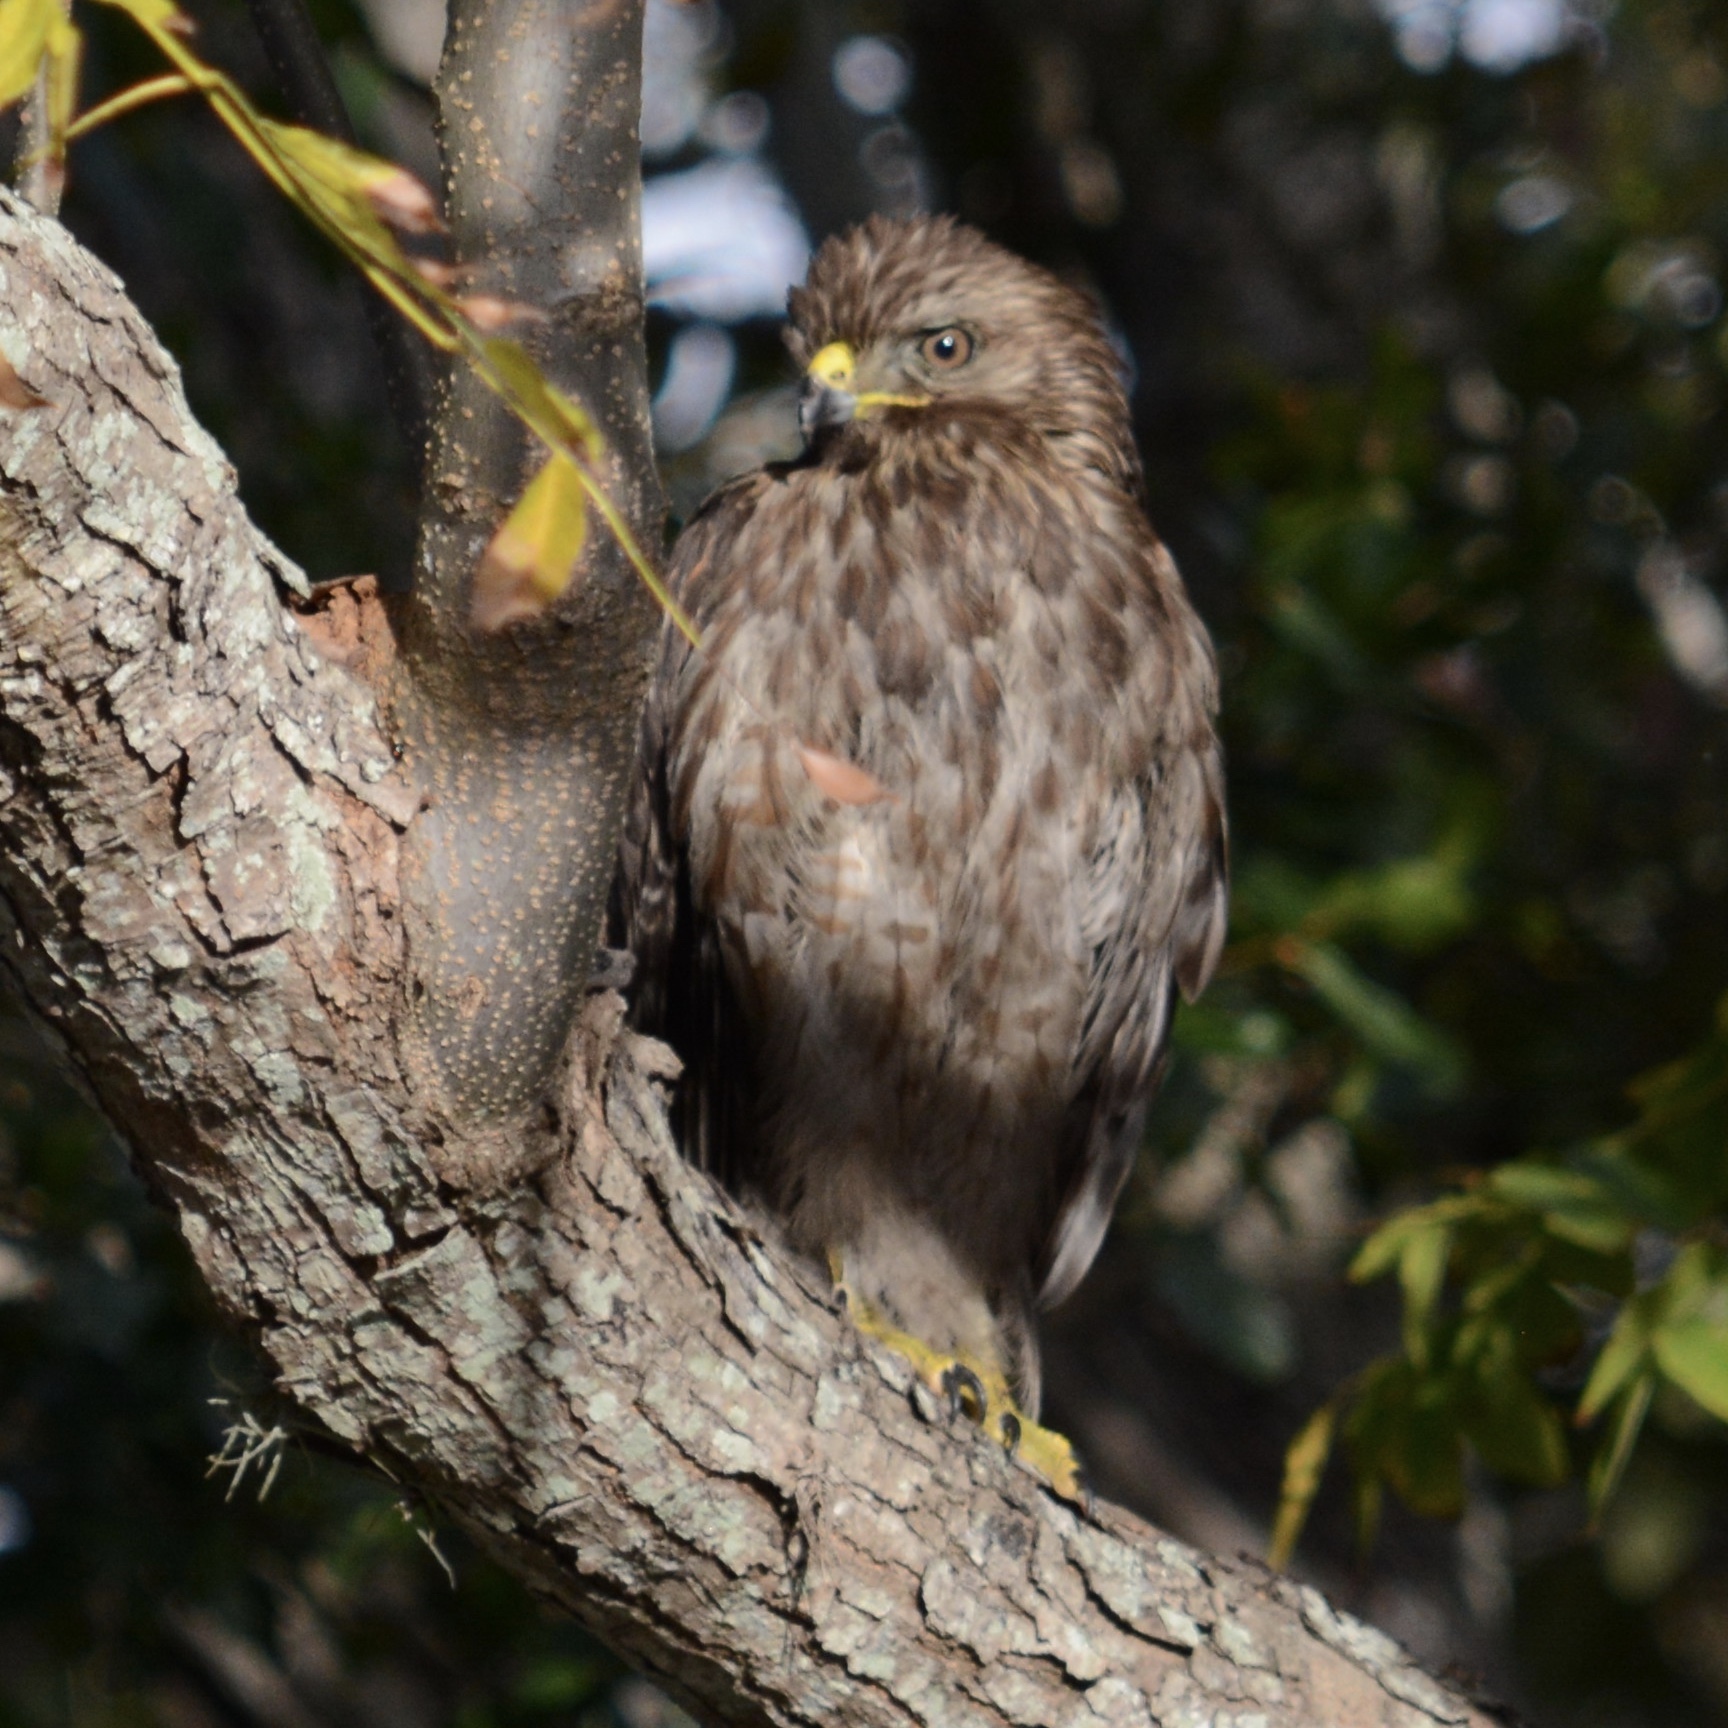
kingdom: Animalia
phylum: Chordata
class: Aves
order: Accipitriformes
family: Accipitridae
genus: Buteo
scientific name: Buteo lineatus
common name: Red-shouldered hawk
